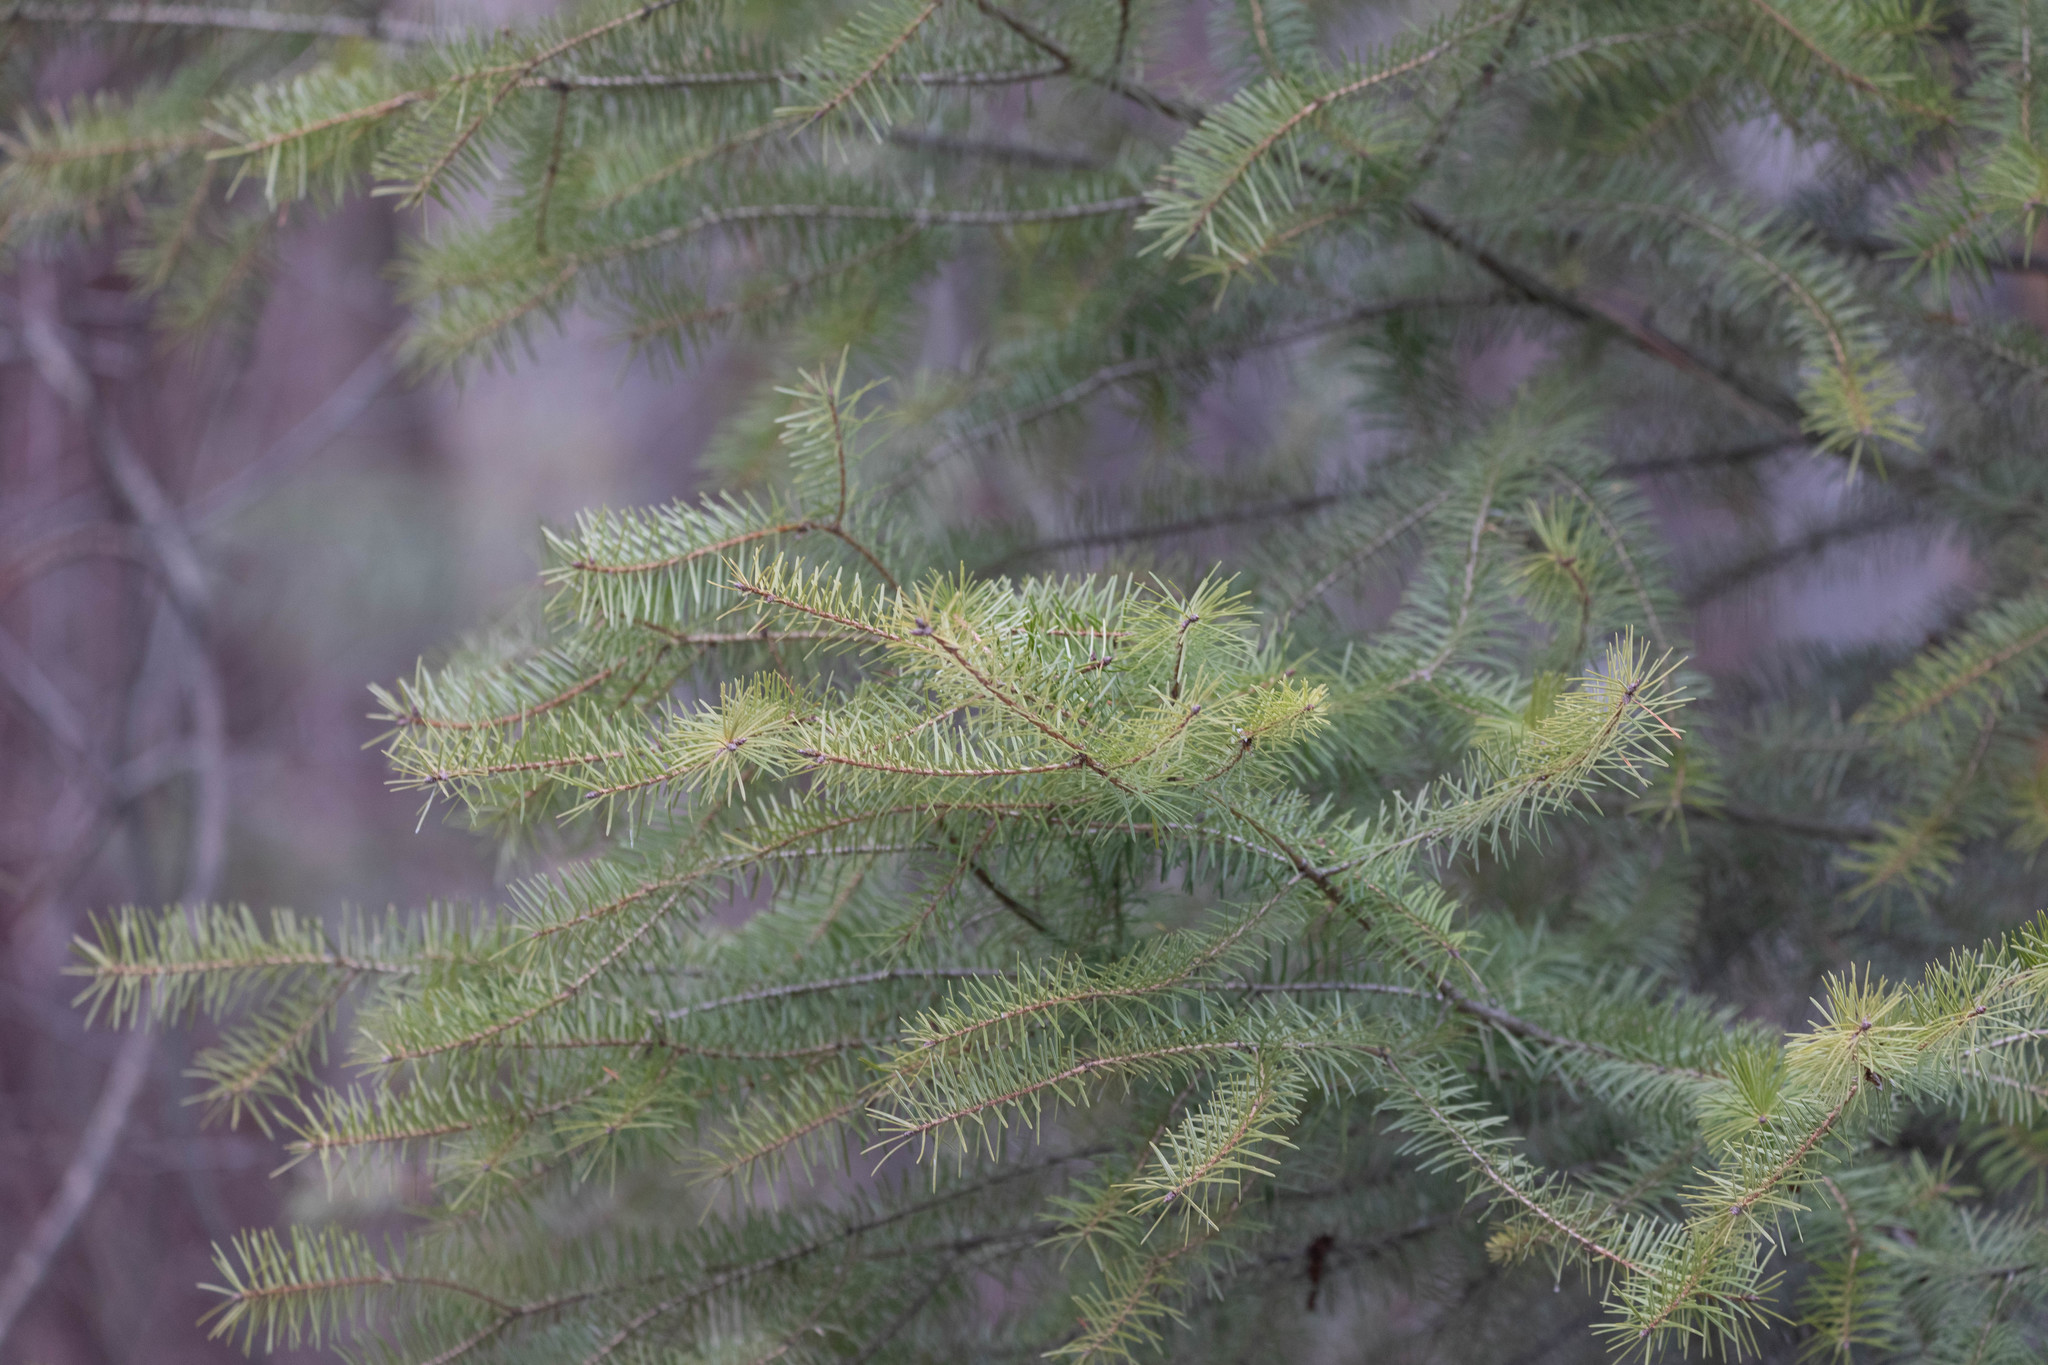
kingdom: Plantae
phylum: Tracheophyta
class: Pinopsida
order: Pinales
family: Pinaceae
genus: Pseudotsuga
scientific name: Pseudotsuga menziesii
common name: Douglas fir
